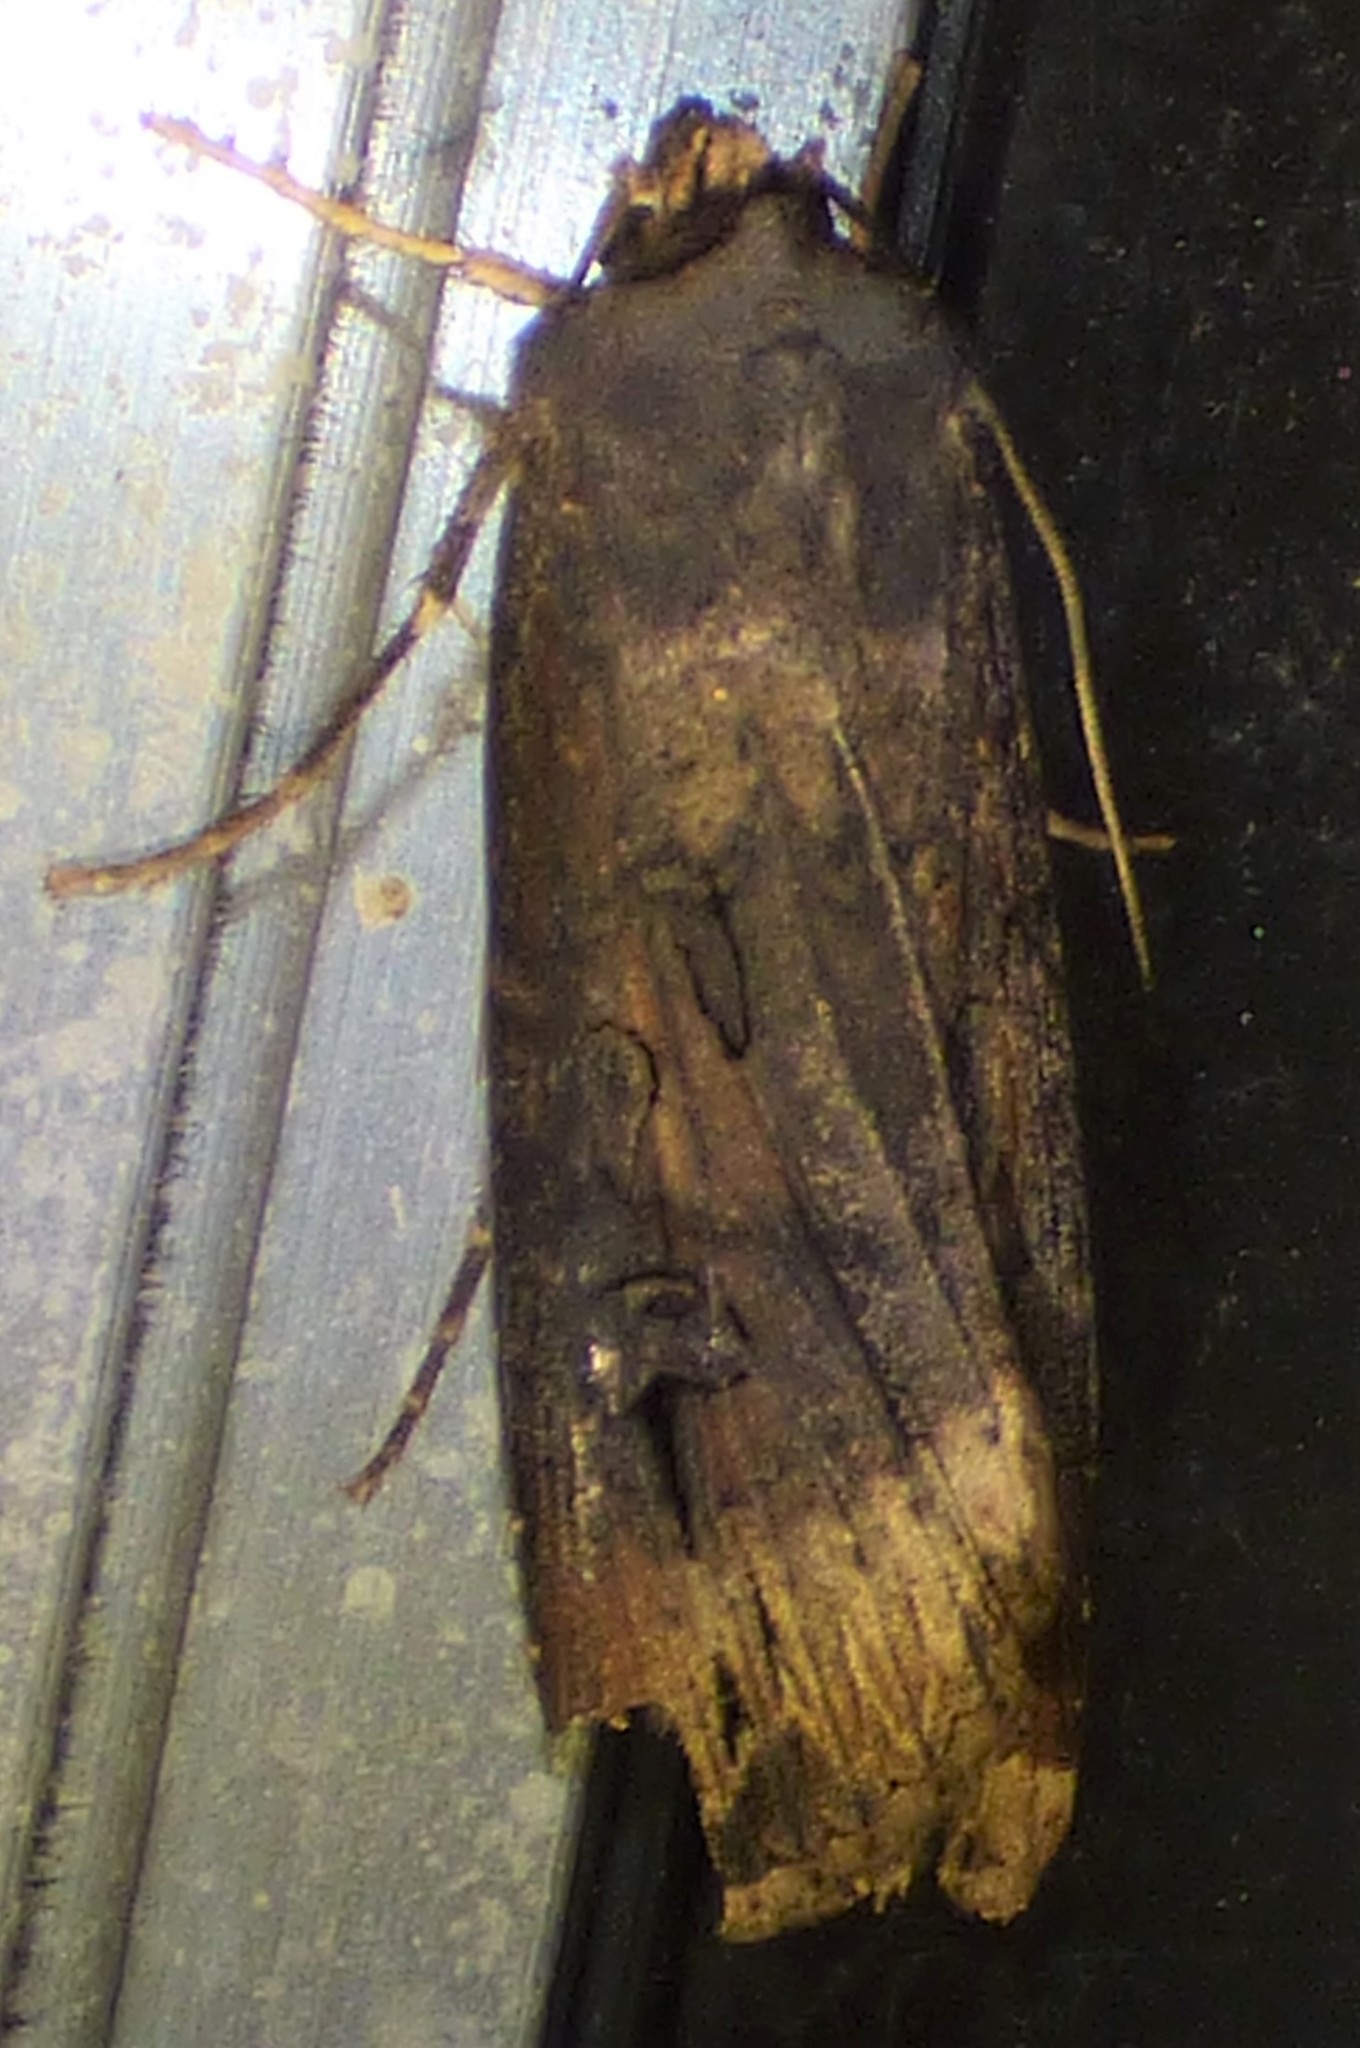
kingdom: Animalia
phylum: Arthropoda
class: Insecta
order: Lepidoptera
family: Noctuidae
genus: Agrotis
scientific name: Agrotis ipsilon
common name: Dark sword-grass
